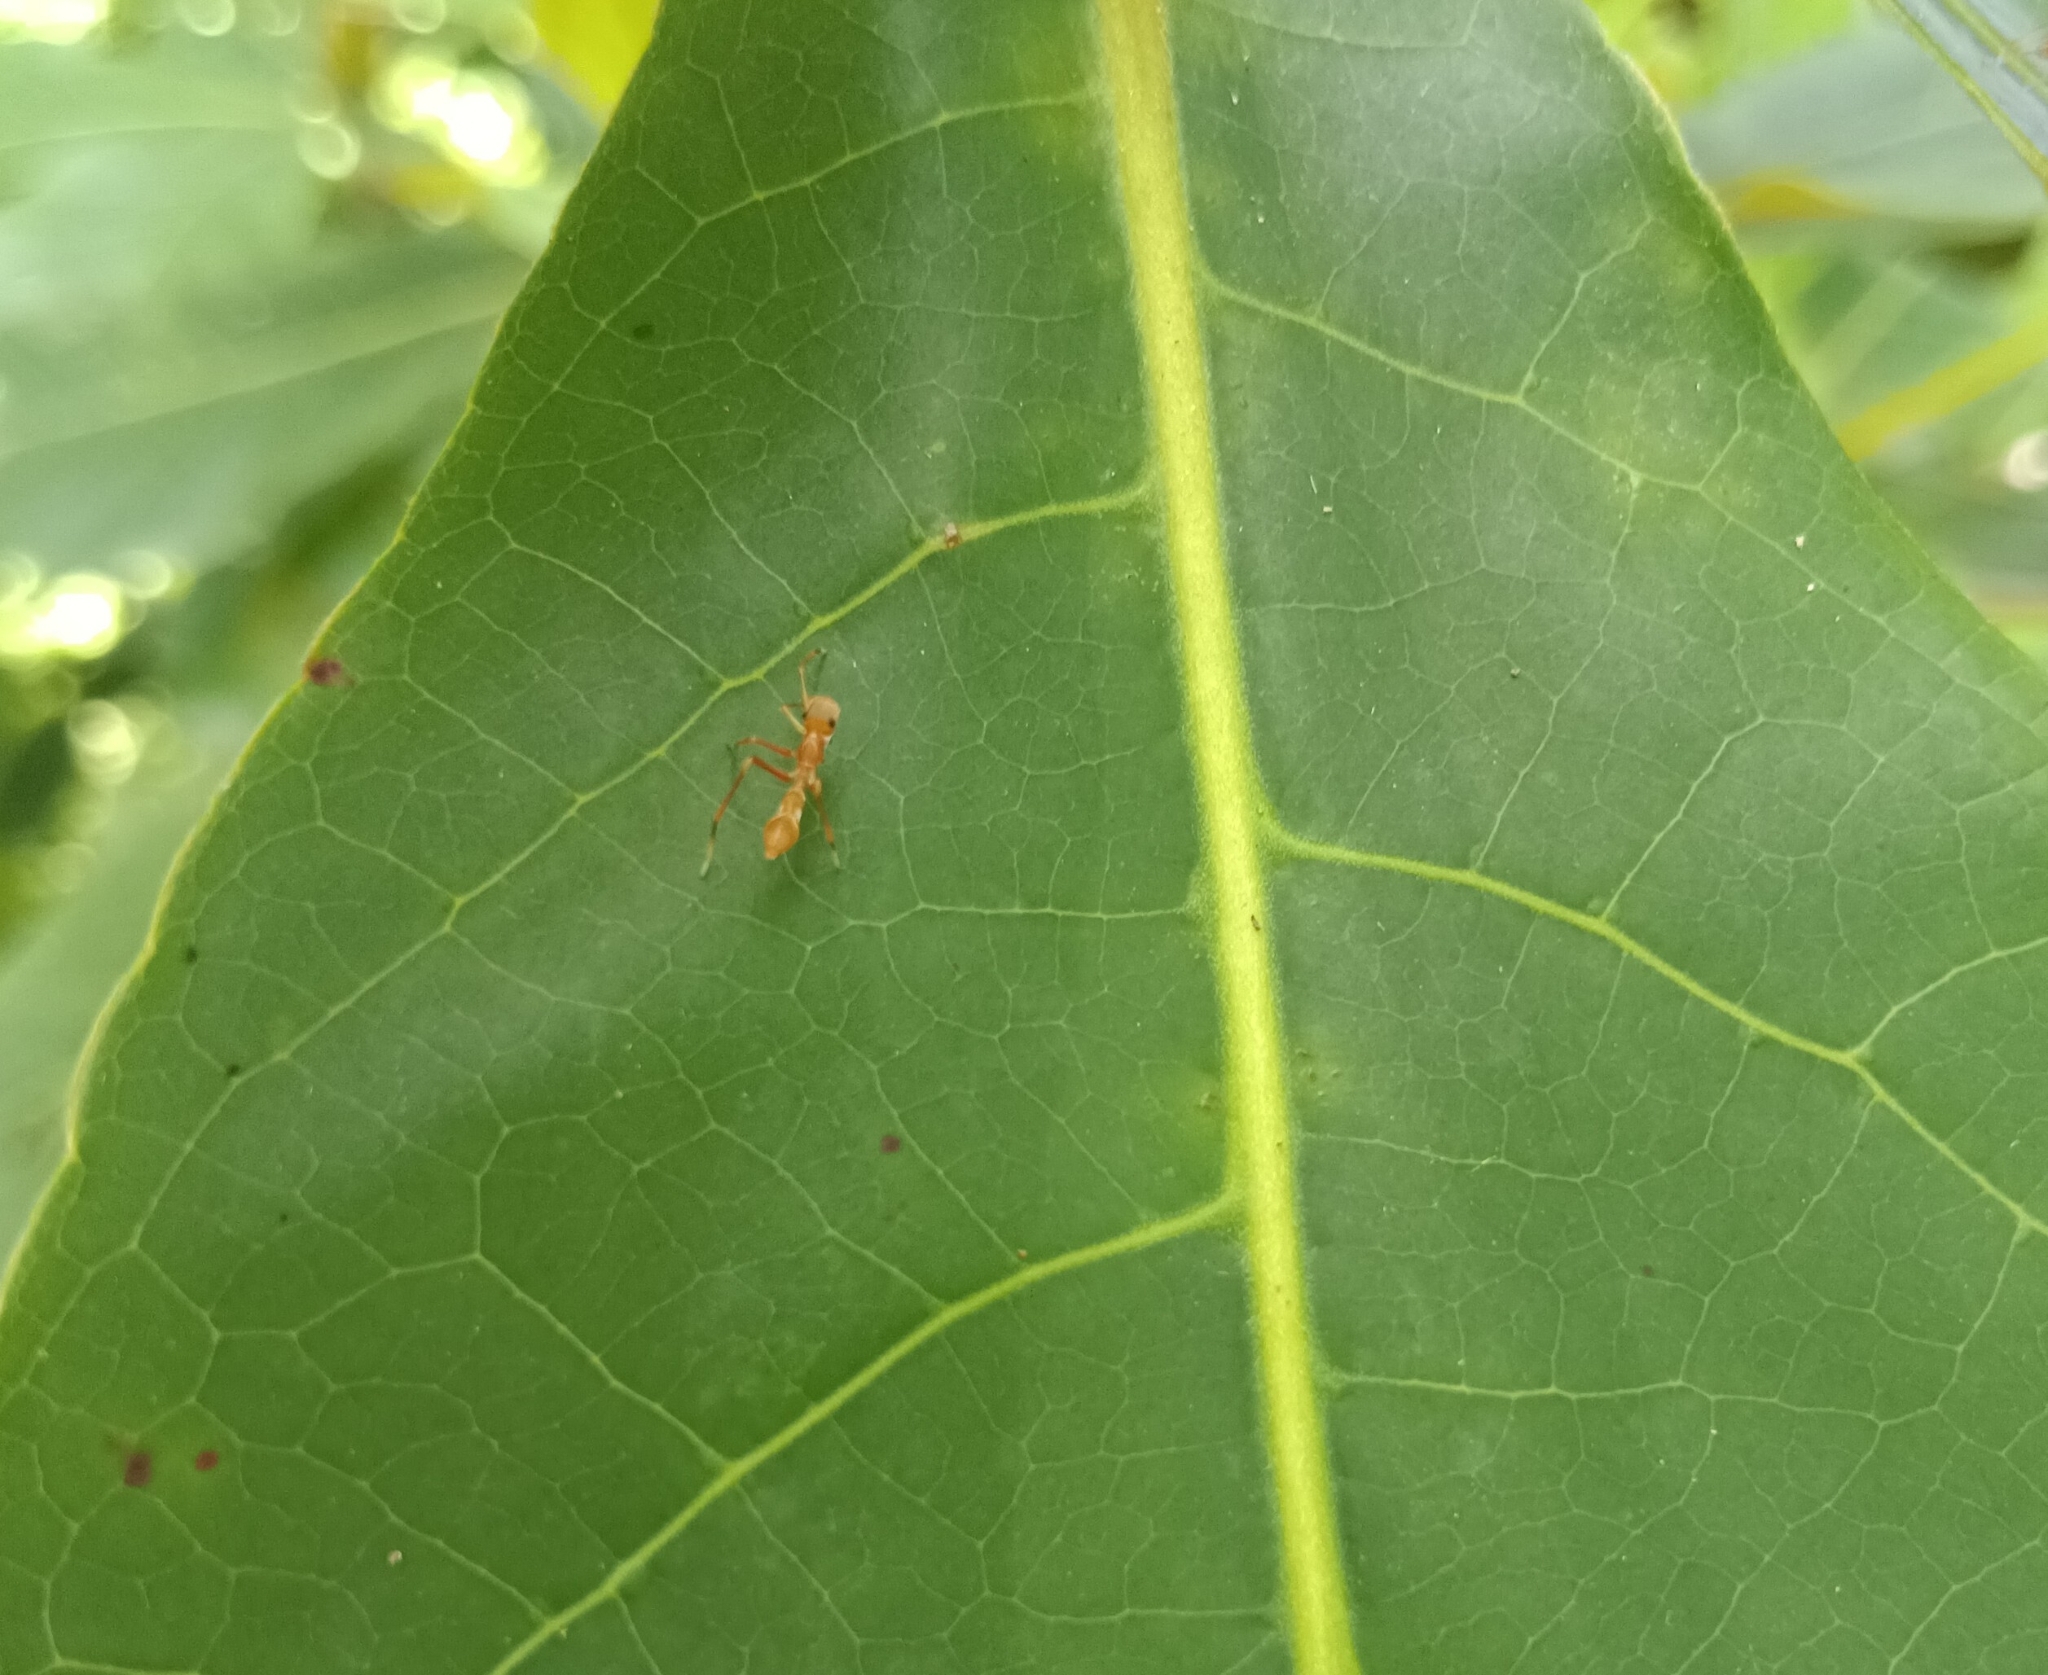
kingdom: Animalia
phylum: Arthropoda
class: Arachnida
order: Araneae
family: Salticidae
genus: Myrmaplata
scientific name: Myrmaplata plataleoides
